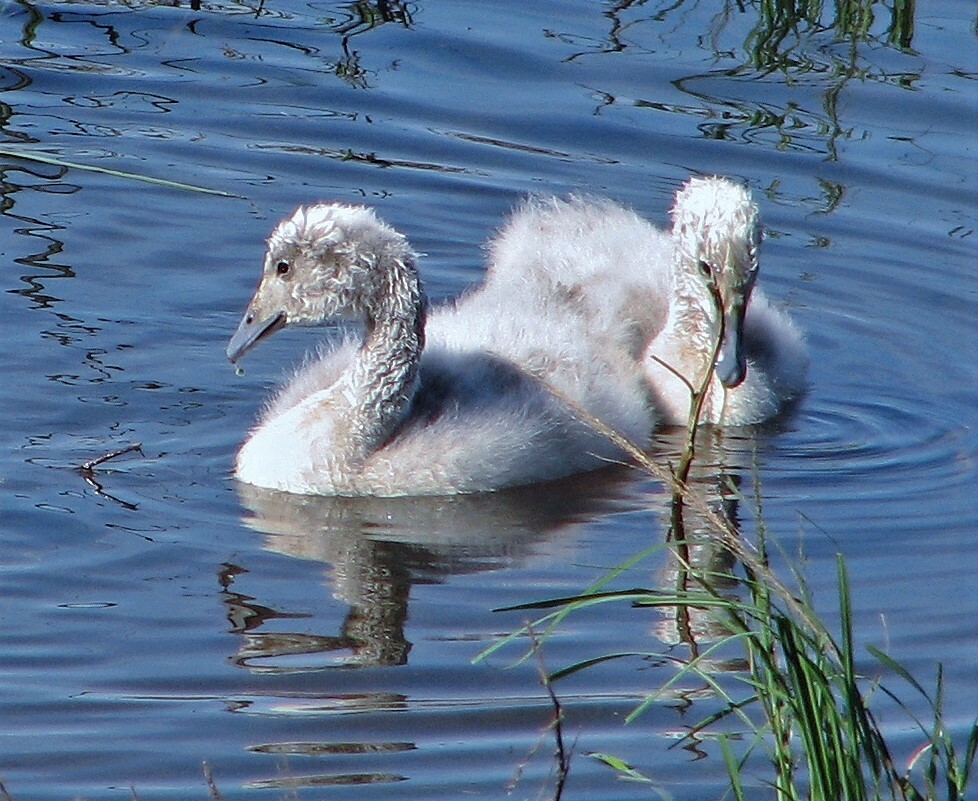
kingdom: Animalia
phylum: Chordata
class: Aves
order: Anseriformes
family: Anatidae
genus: Cygnus
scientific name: Cygnus melancoryphus
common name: Black-necked swan
